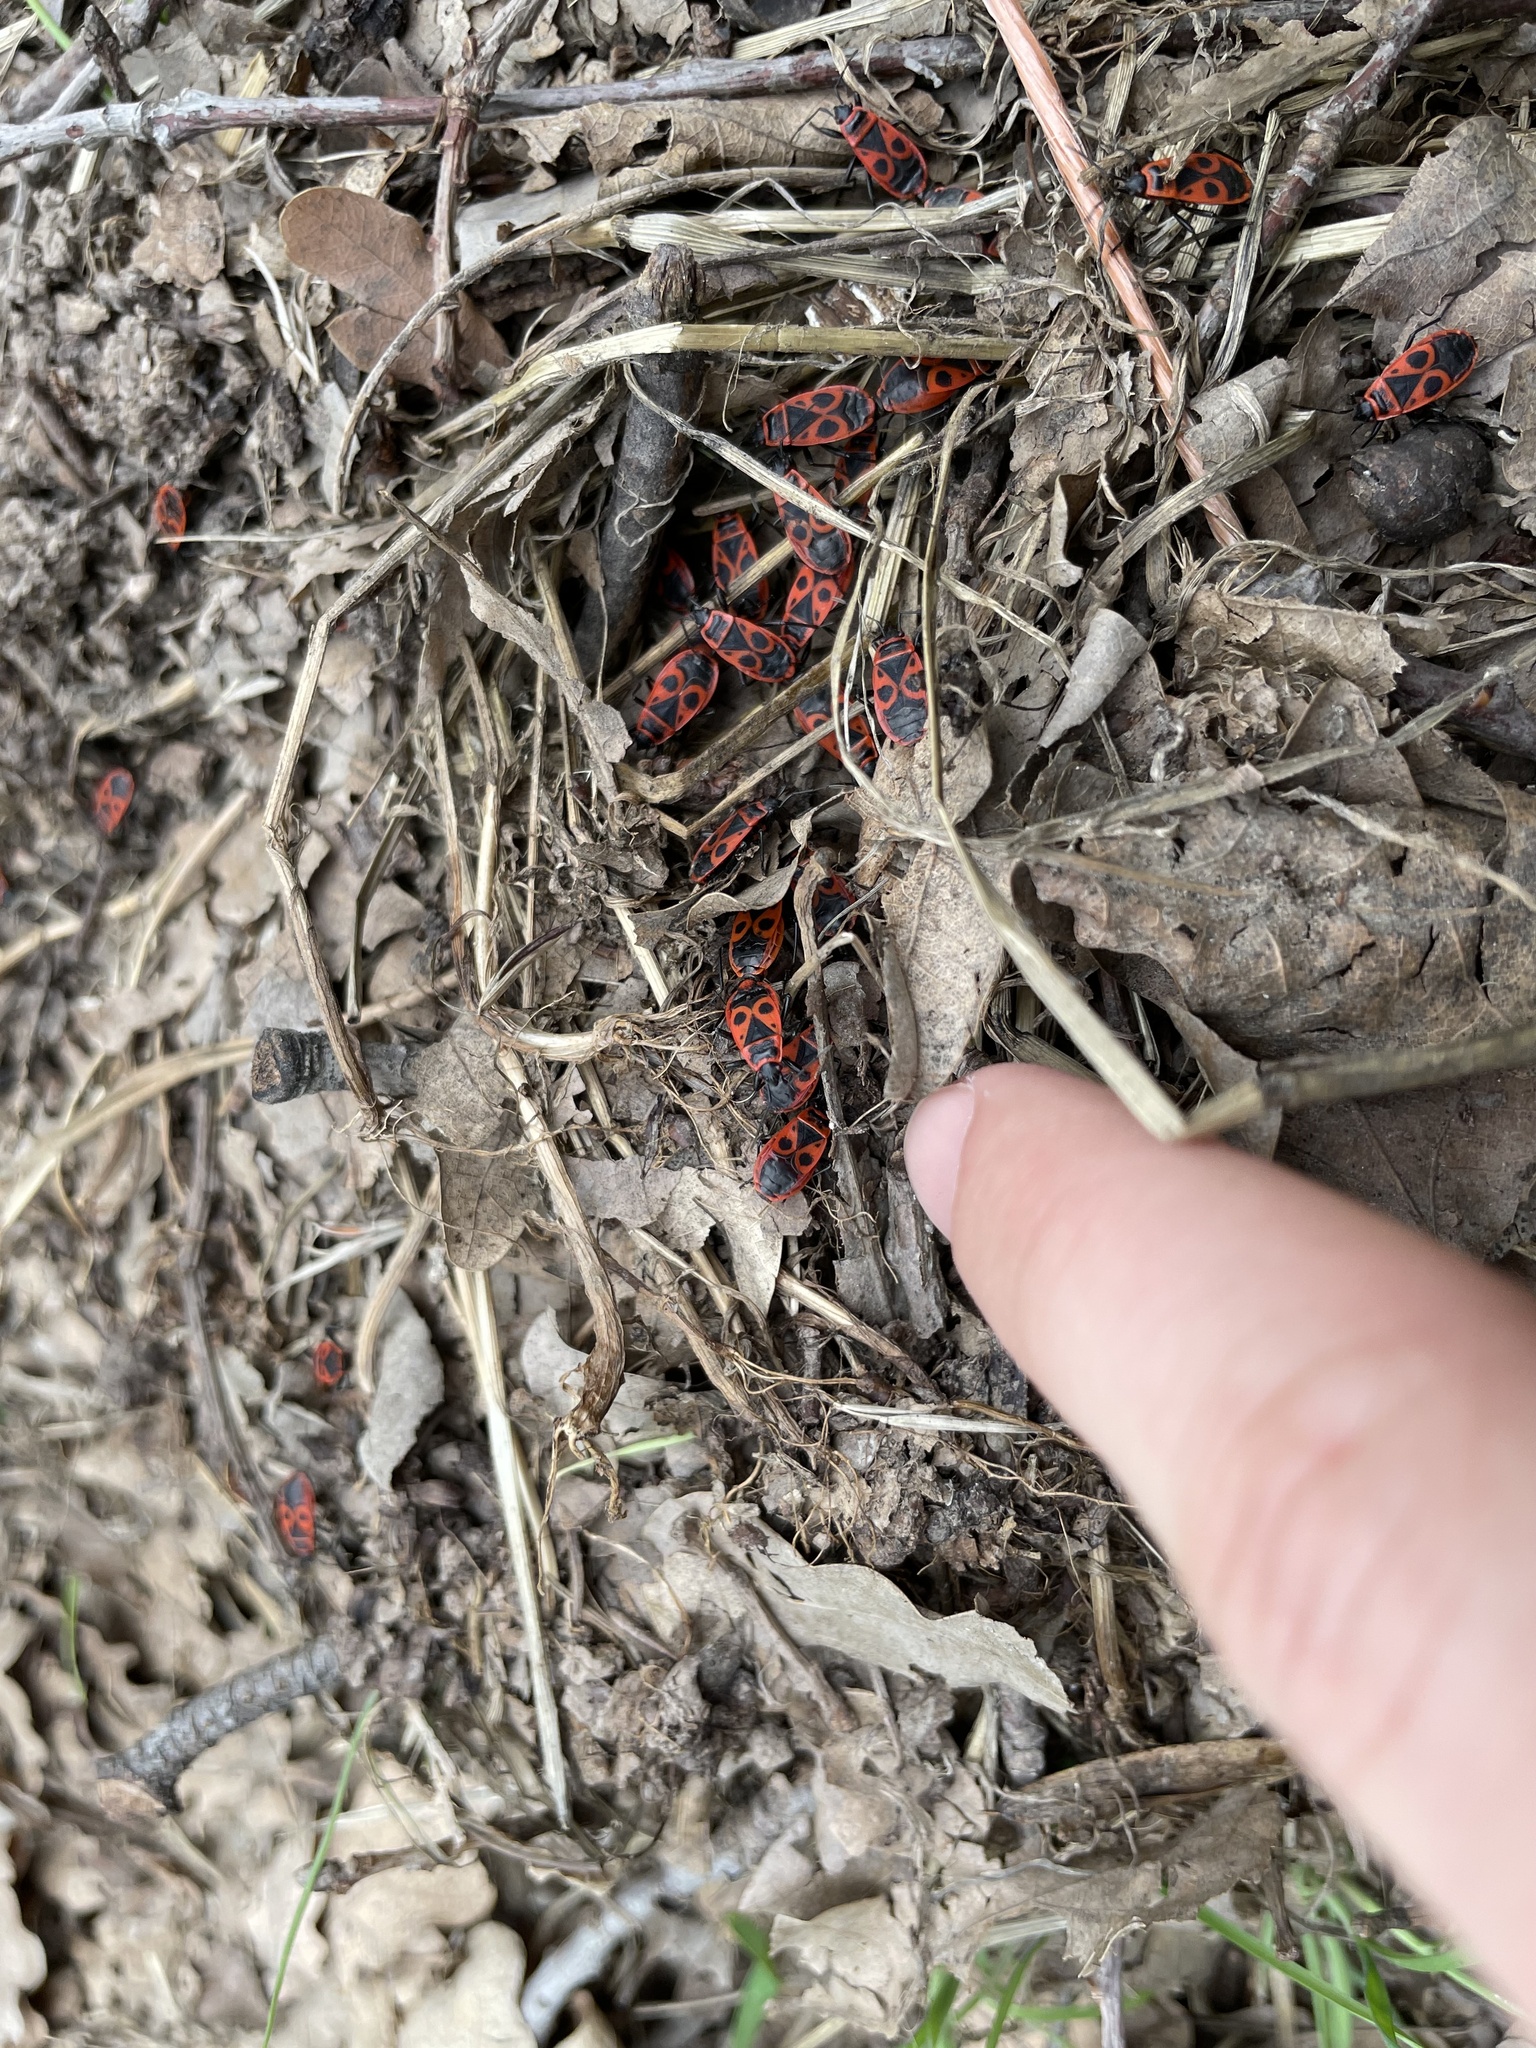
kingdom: Animalia
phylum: Arthropoda
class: Insecta
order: Hemiptera
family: Pyrrhocoridae
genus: Pyrrhocoris
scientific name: Pyrrhocoris apterus
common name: Firebug
